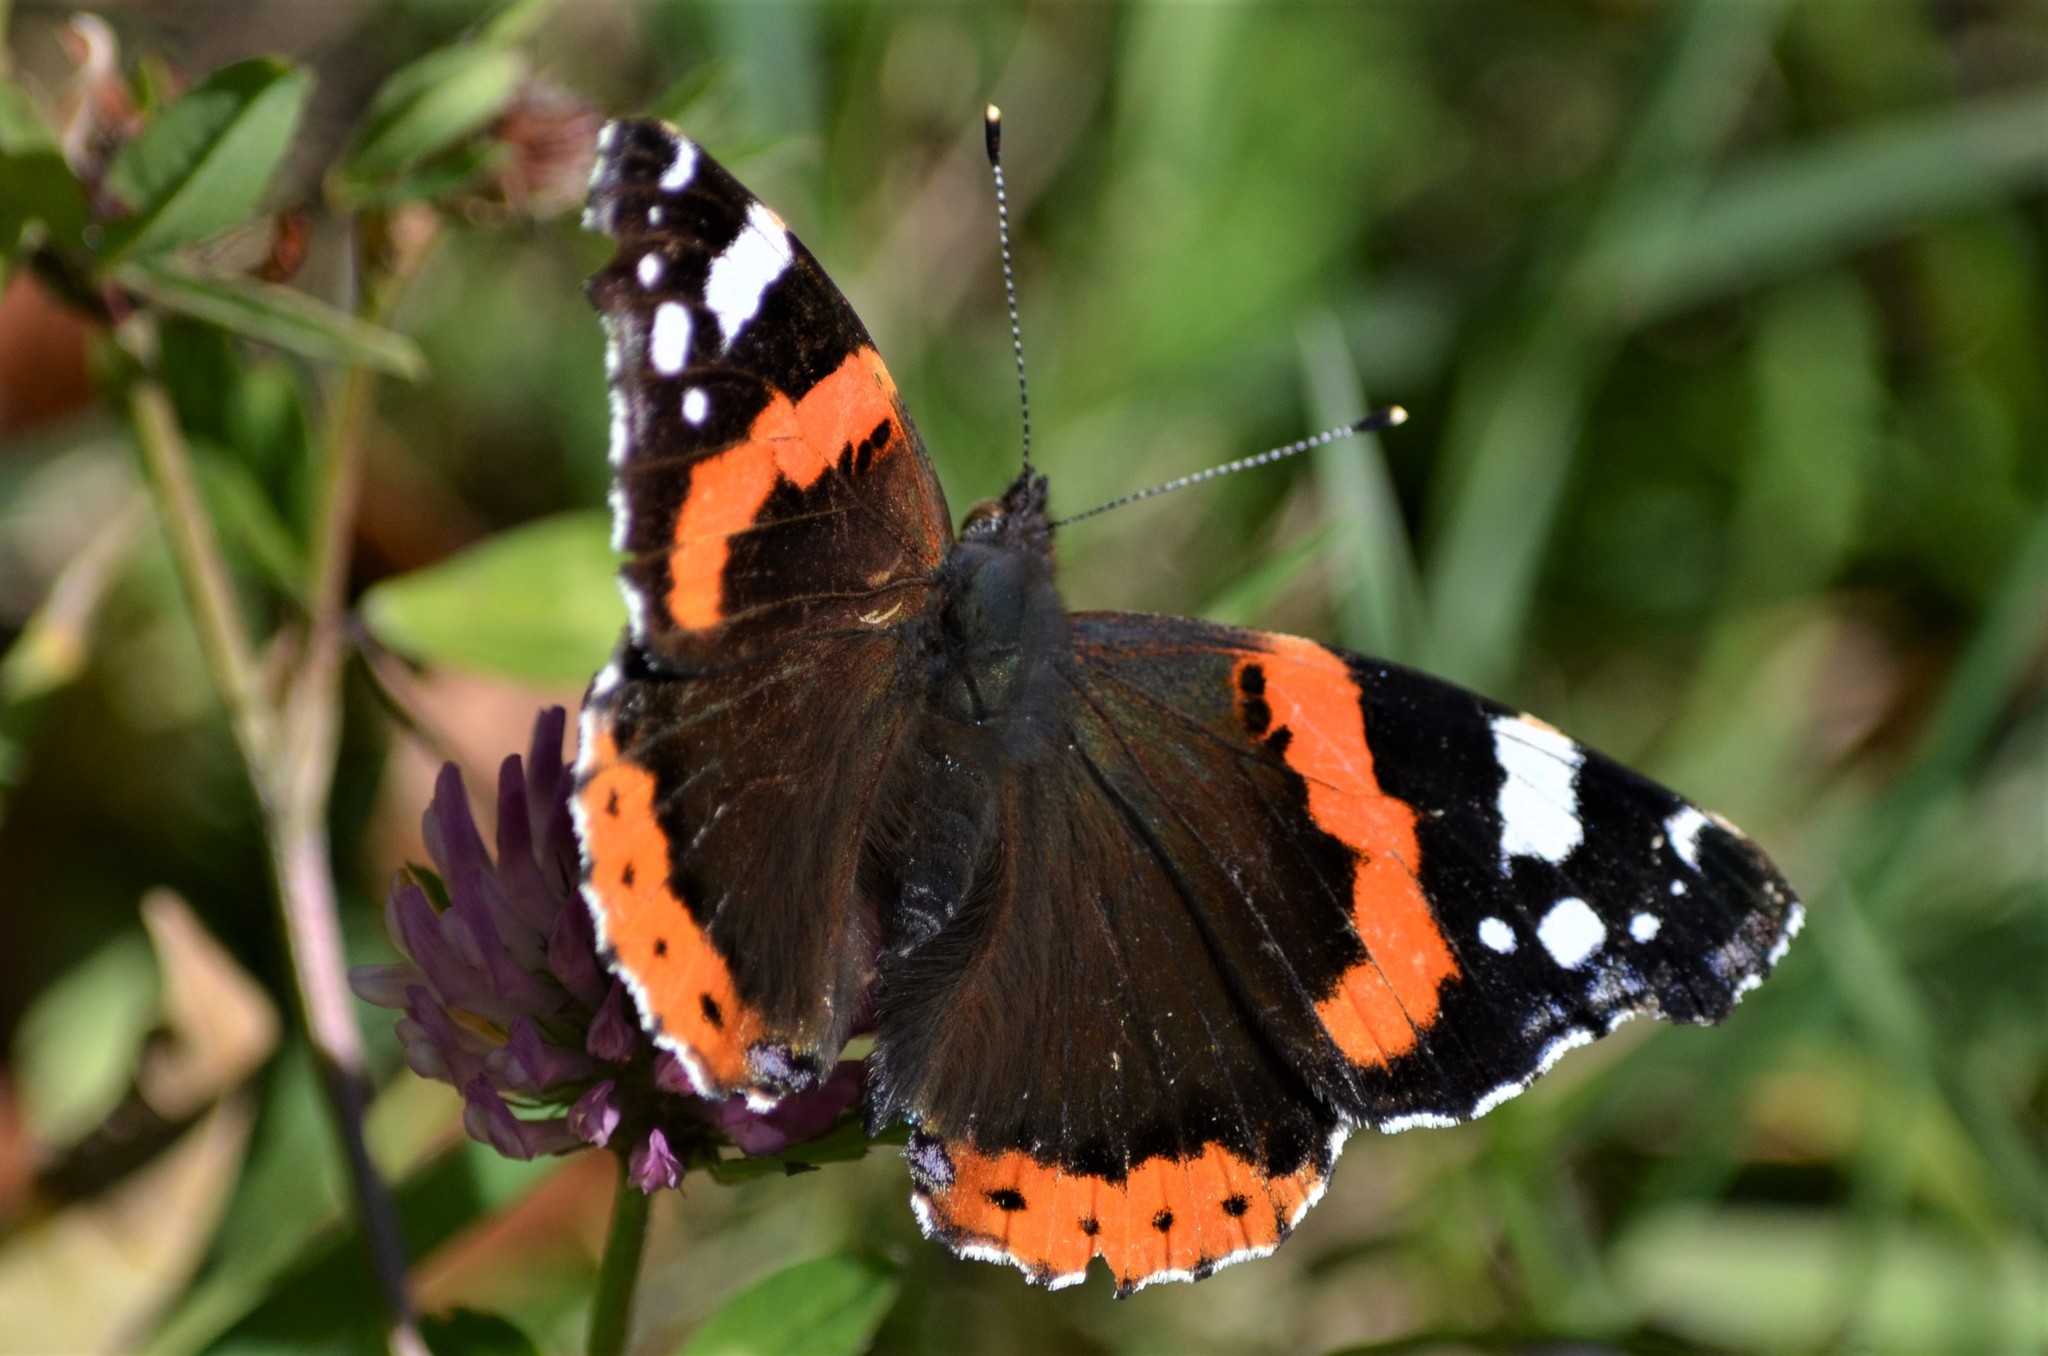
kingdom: Animalia
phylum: Arthropoda
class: Insecta
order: Lepidoptera
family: Nymphalidae
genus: Vanessa
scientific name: Vanessa atalanta
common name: Red admiral
